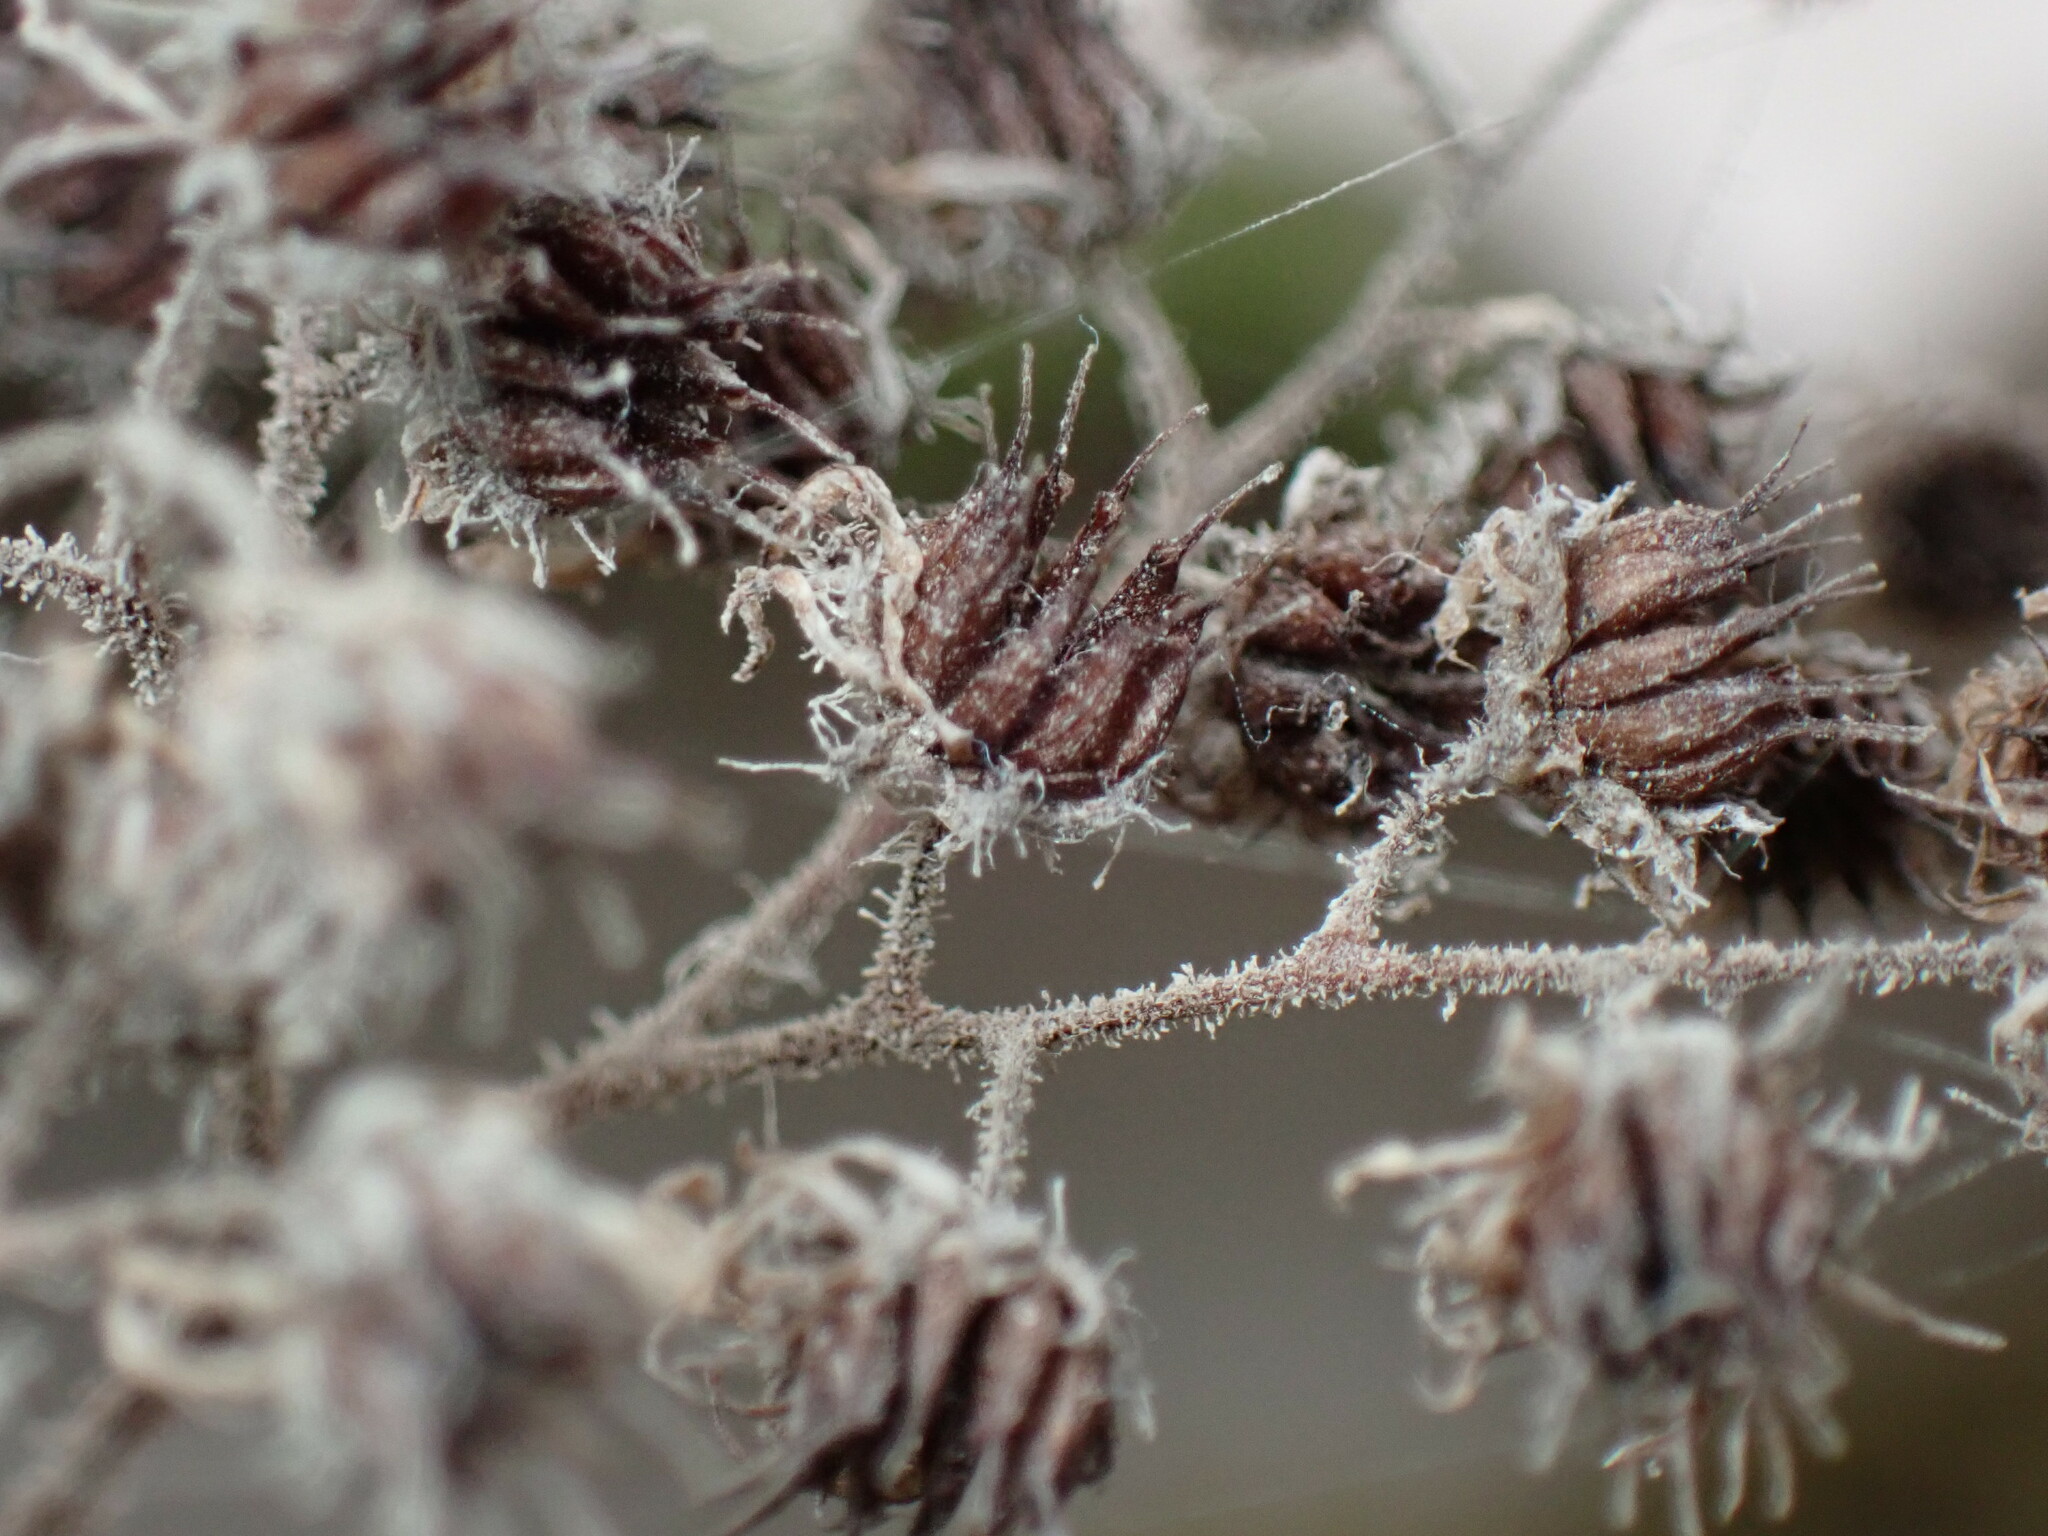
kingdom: Plantae
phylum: Tracheophyta
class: Magnoliopsida
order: Saxifragales
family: Crassulaceae
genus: Aichryson
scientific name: Aichryson laxum
